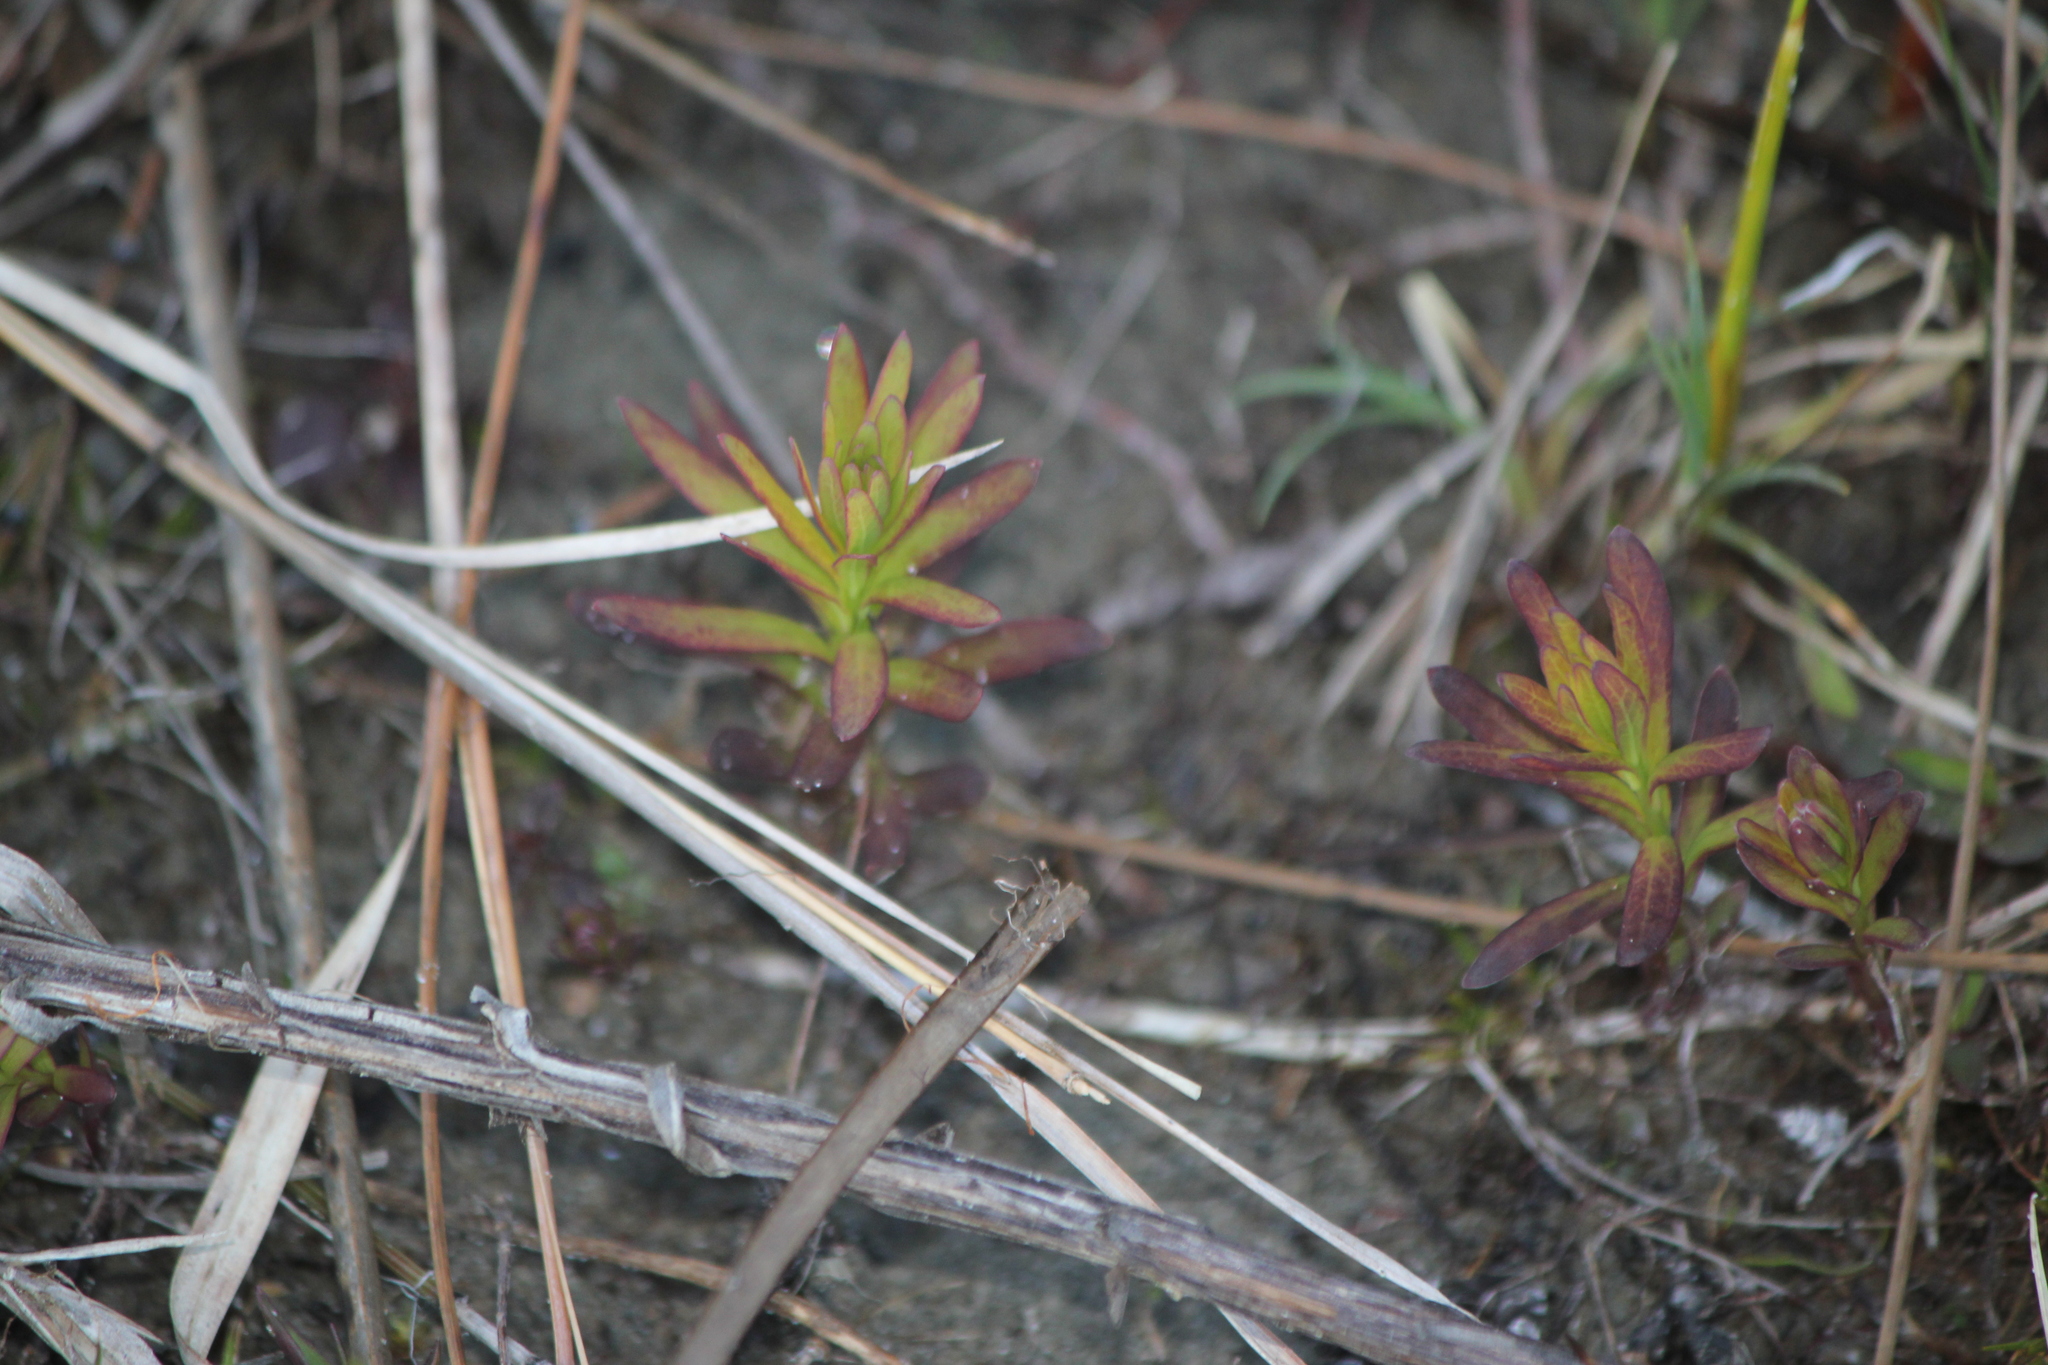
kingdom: Plantae
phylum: Tracheophyta
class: Magnoliopsida
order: Santalales
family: Comandraceae
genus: Comandra
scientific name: Comandra umbellata
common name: Bastard toadflax
